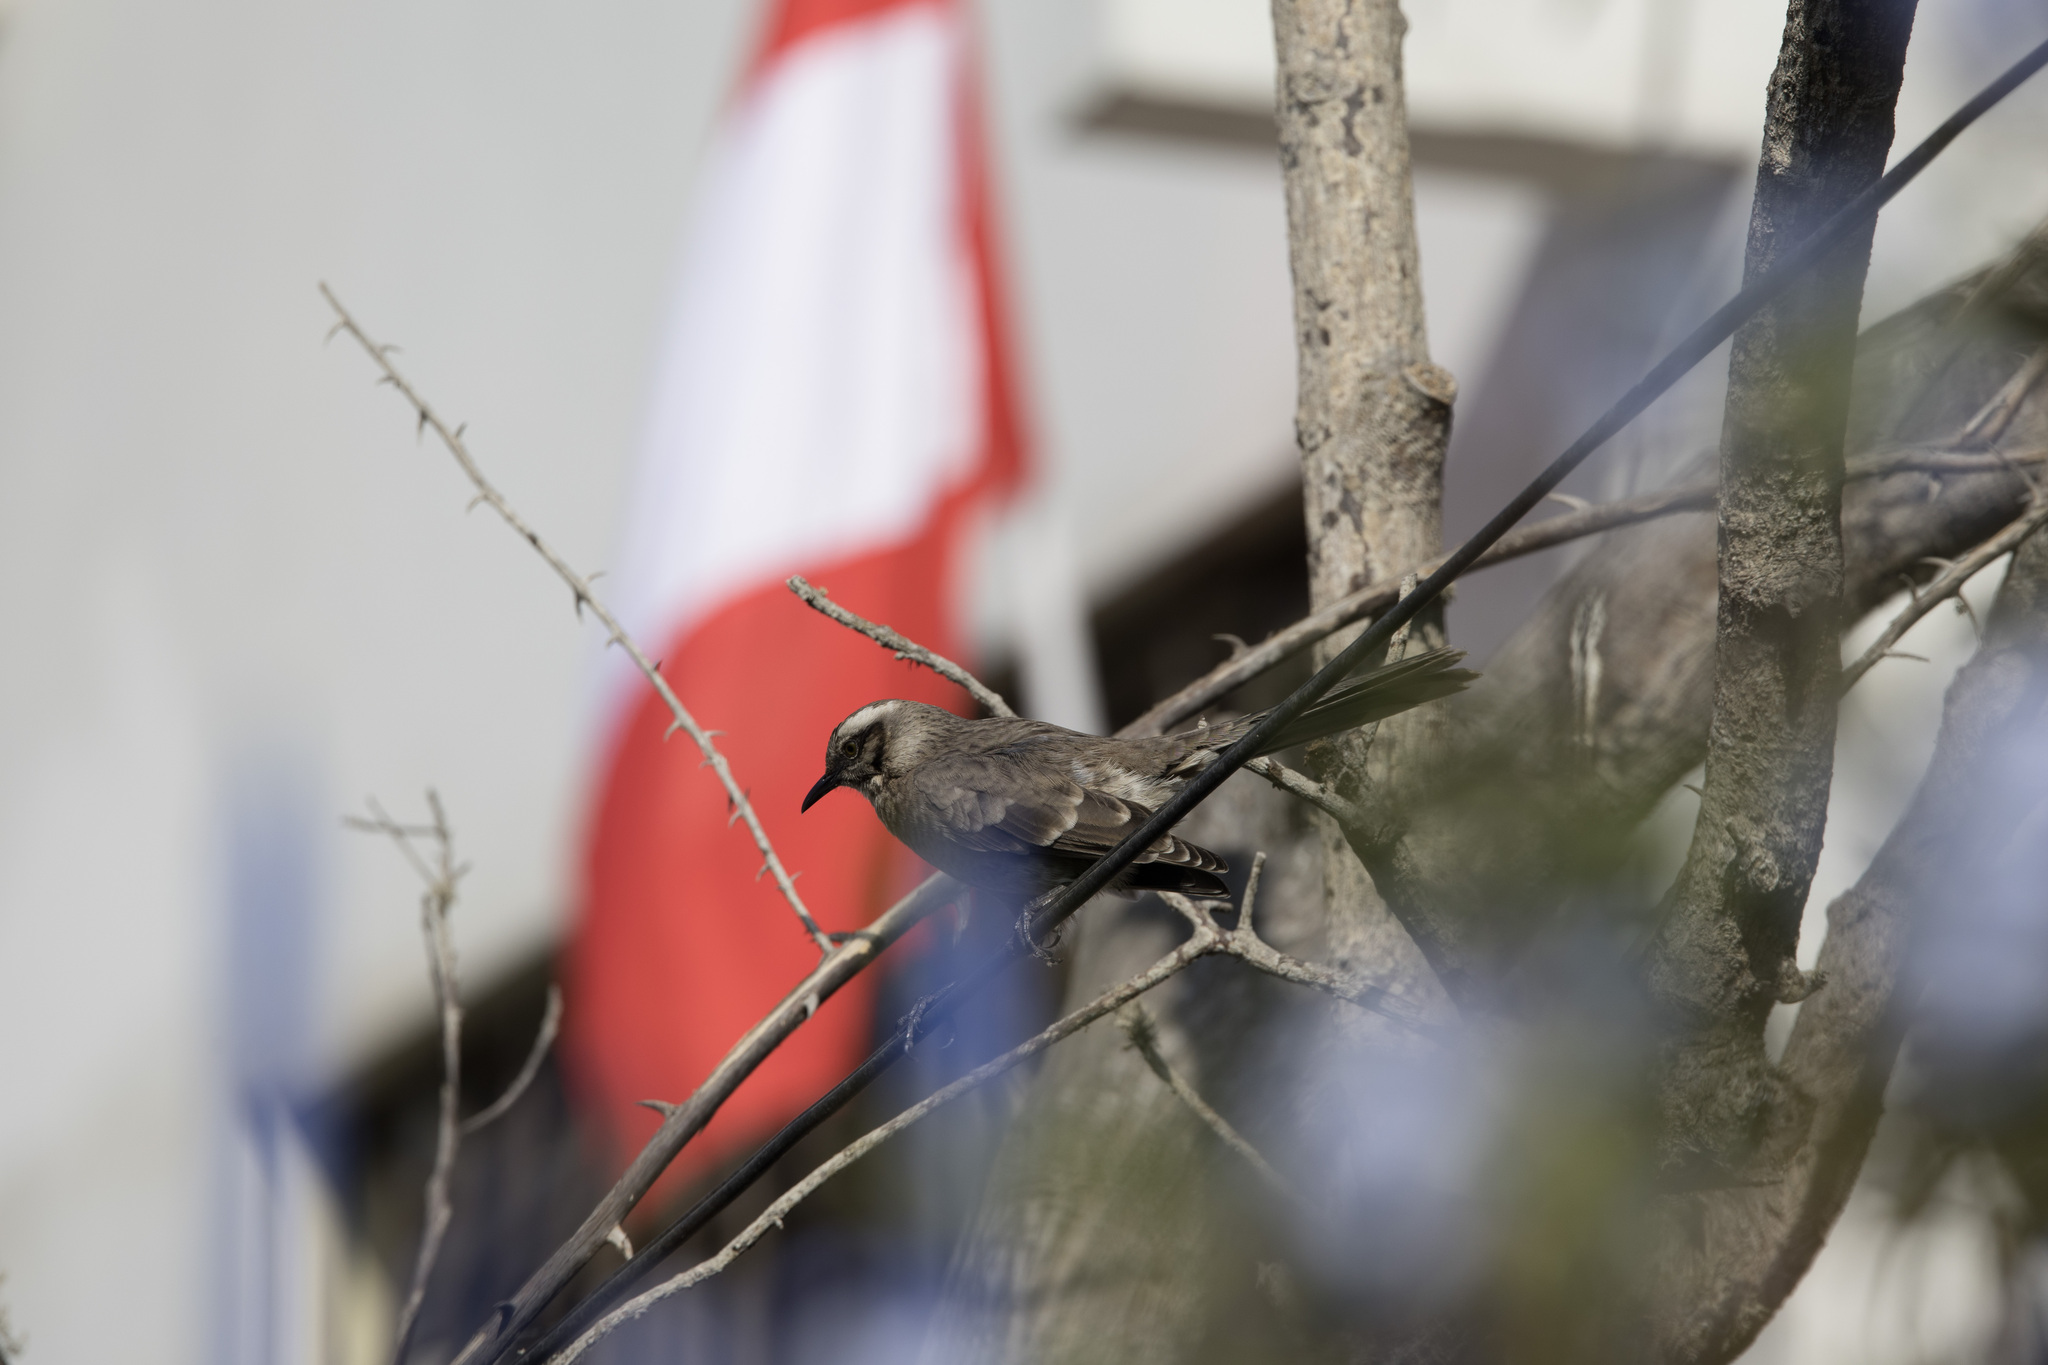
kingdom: Animalia
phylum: Chordata
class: Aves
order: Passeriformes
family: Mimidae
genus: Mimus
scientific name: Mimus longicaudatus
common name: Long-tailed mockingbird
